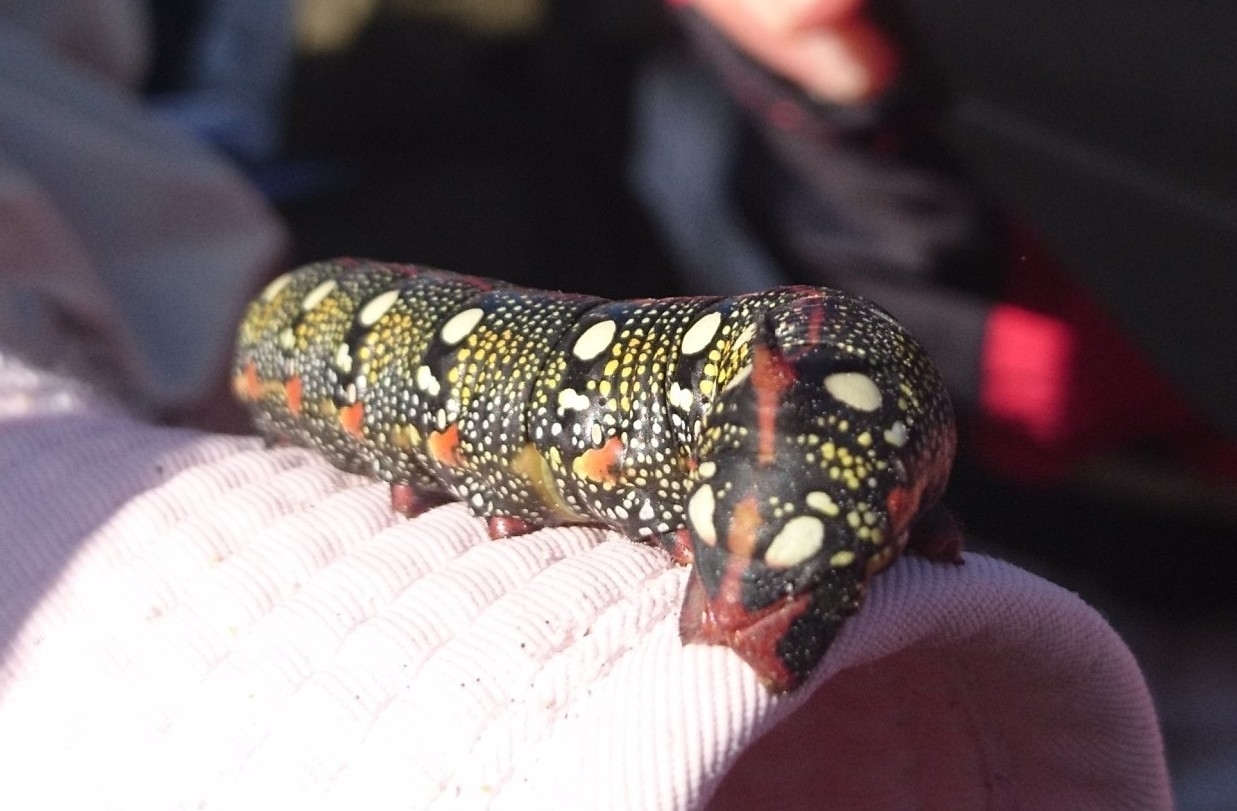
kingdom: Animalia
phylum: Arthropoda
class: Insecta
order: Lepidoptera
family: Sphingidae
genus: Hyles
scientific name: Hyles euphorbiae
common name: Spurge hawk-moth
